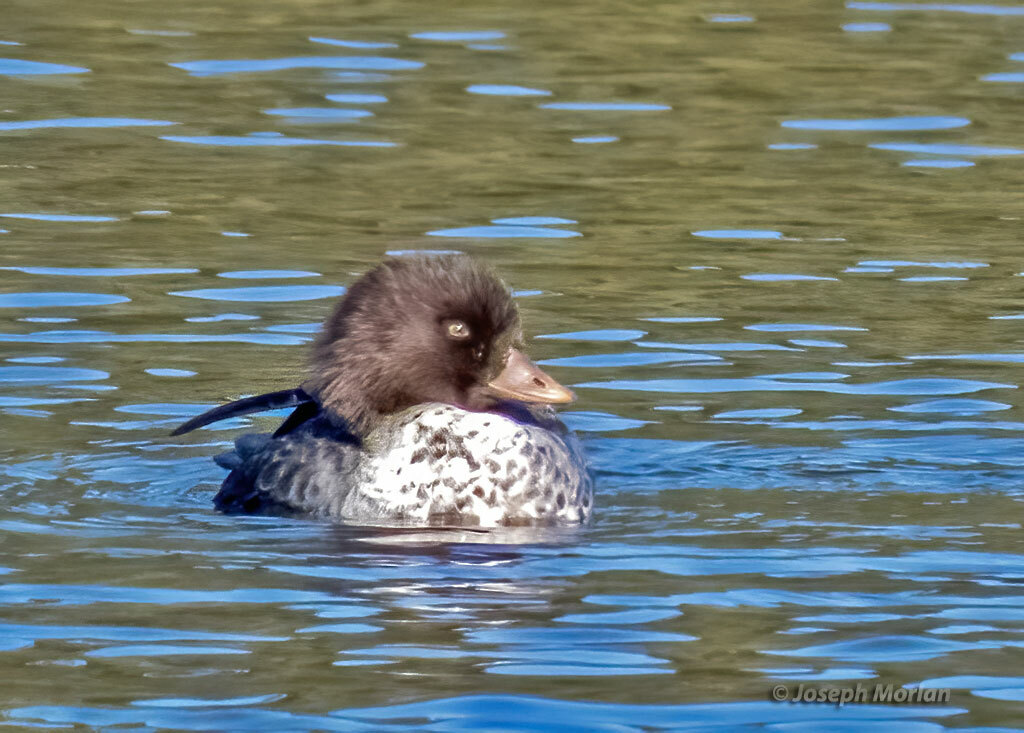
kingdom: Animalia
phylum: Chordata
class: Aves
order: Anseriformes
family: Anatidae
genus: Bucephala
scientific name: Bucephala islandica
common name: Barrow's goldeneye
